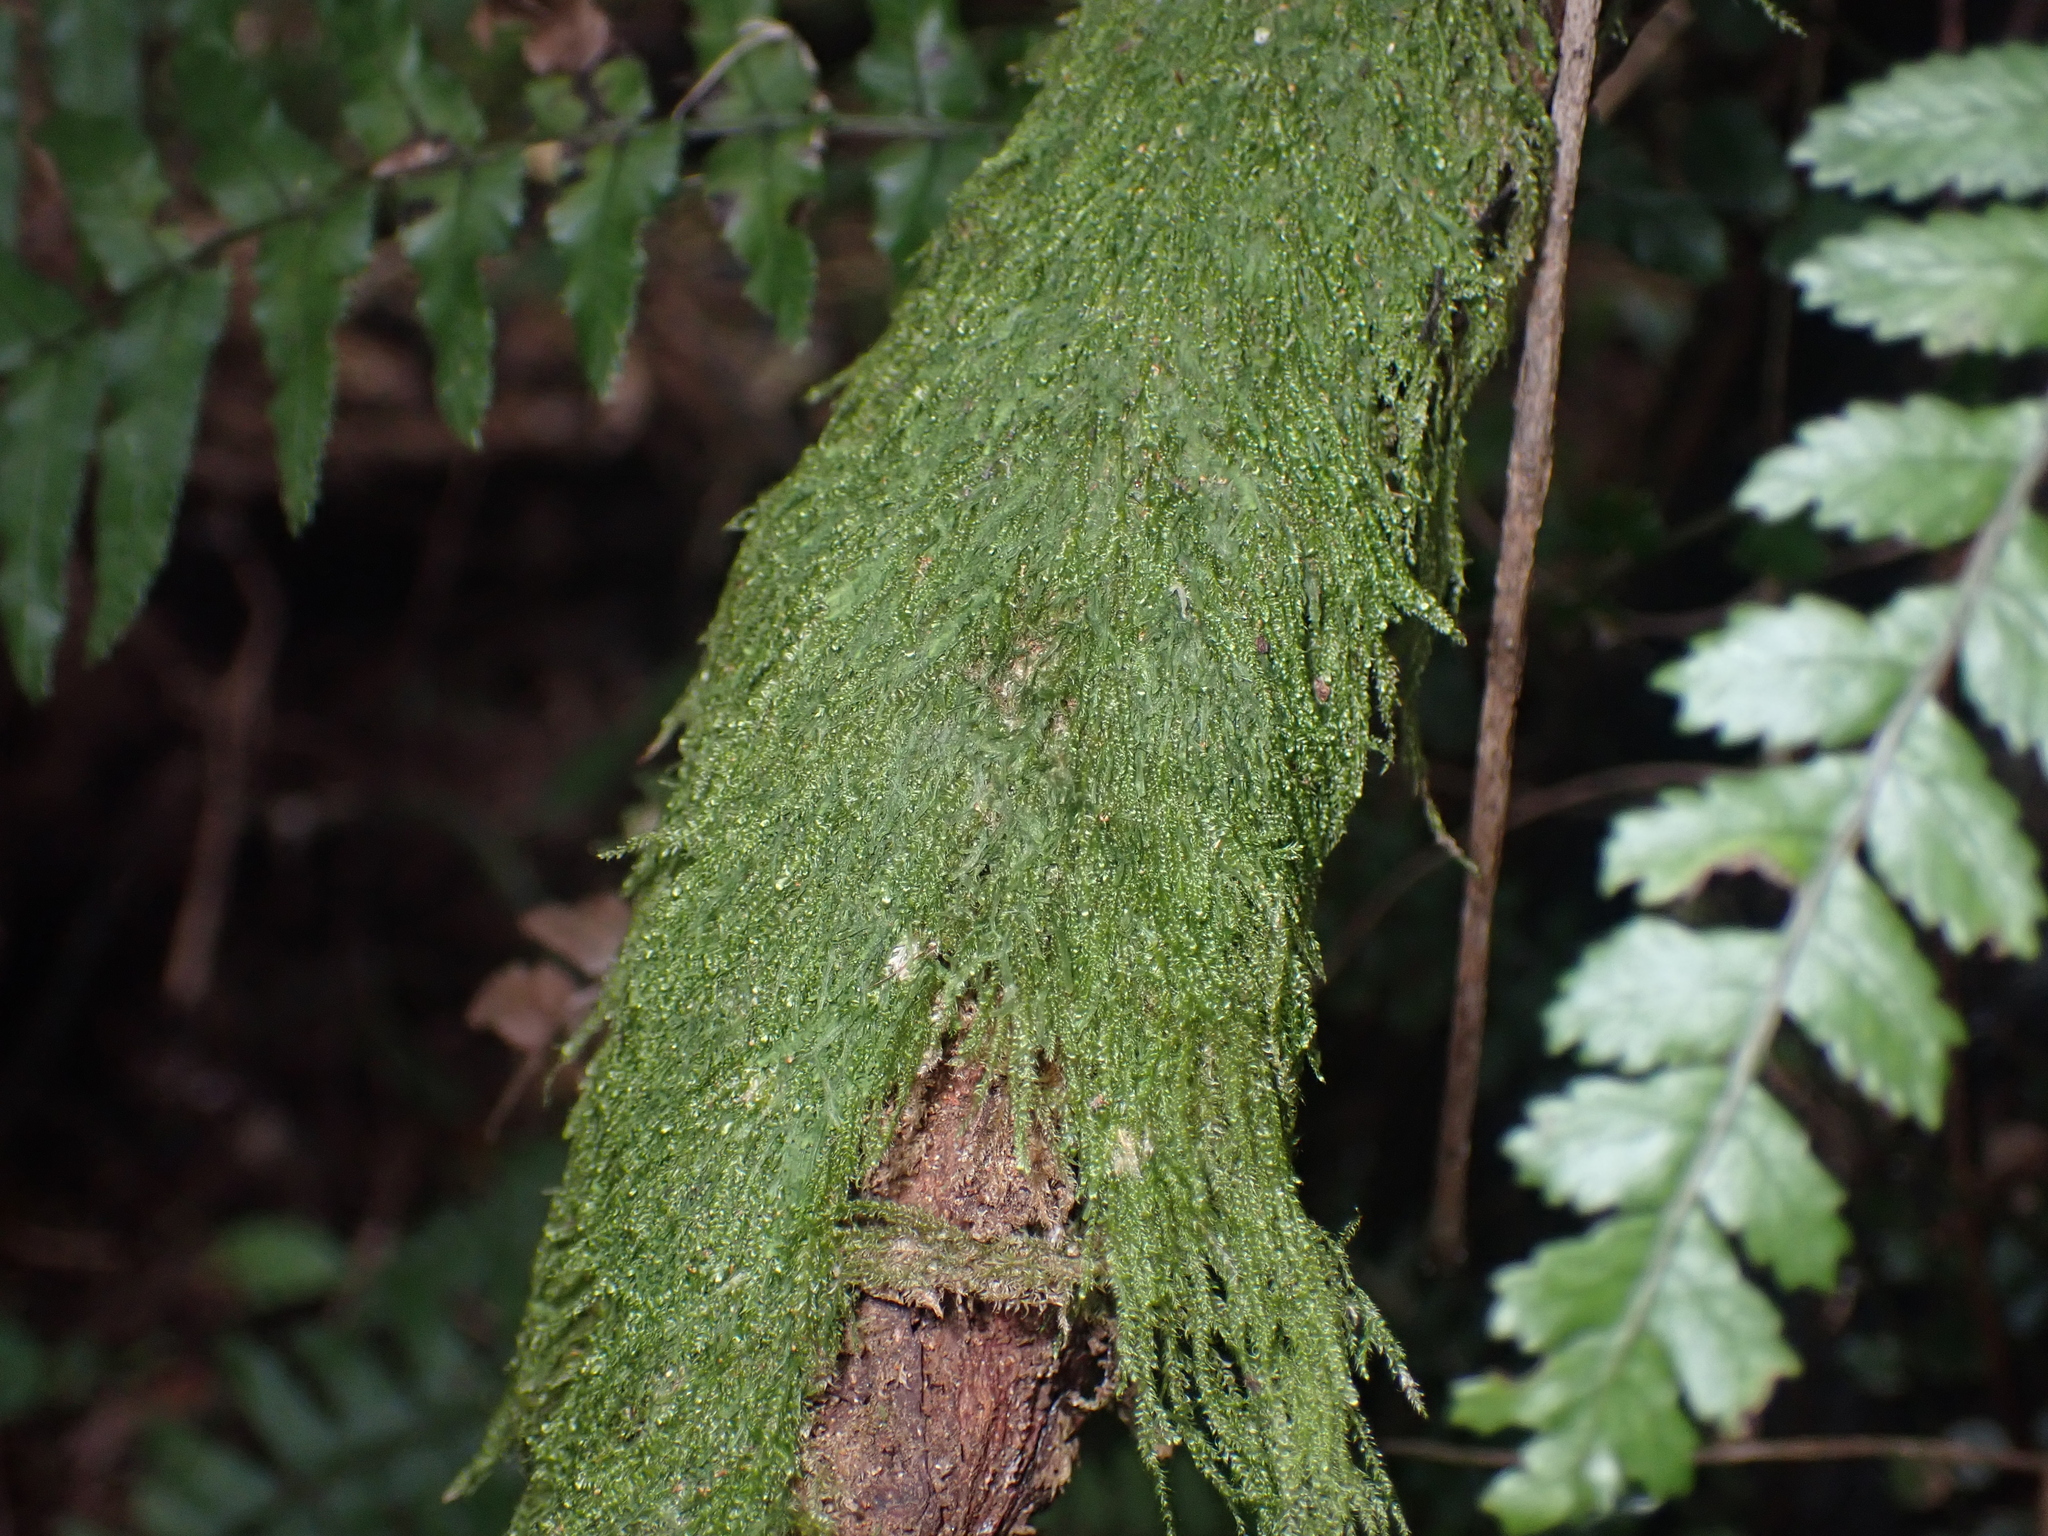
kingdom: Plantae
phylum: Bryophyta
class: Bryopsida
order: Hypnales
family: Hypnaceae
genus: Hypnum
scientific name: Hypnum cupressiforme
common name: Cypress-leaved plait-moss
